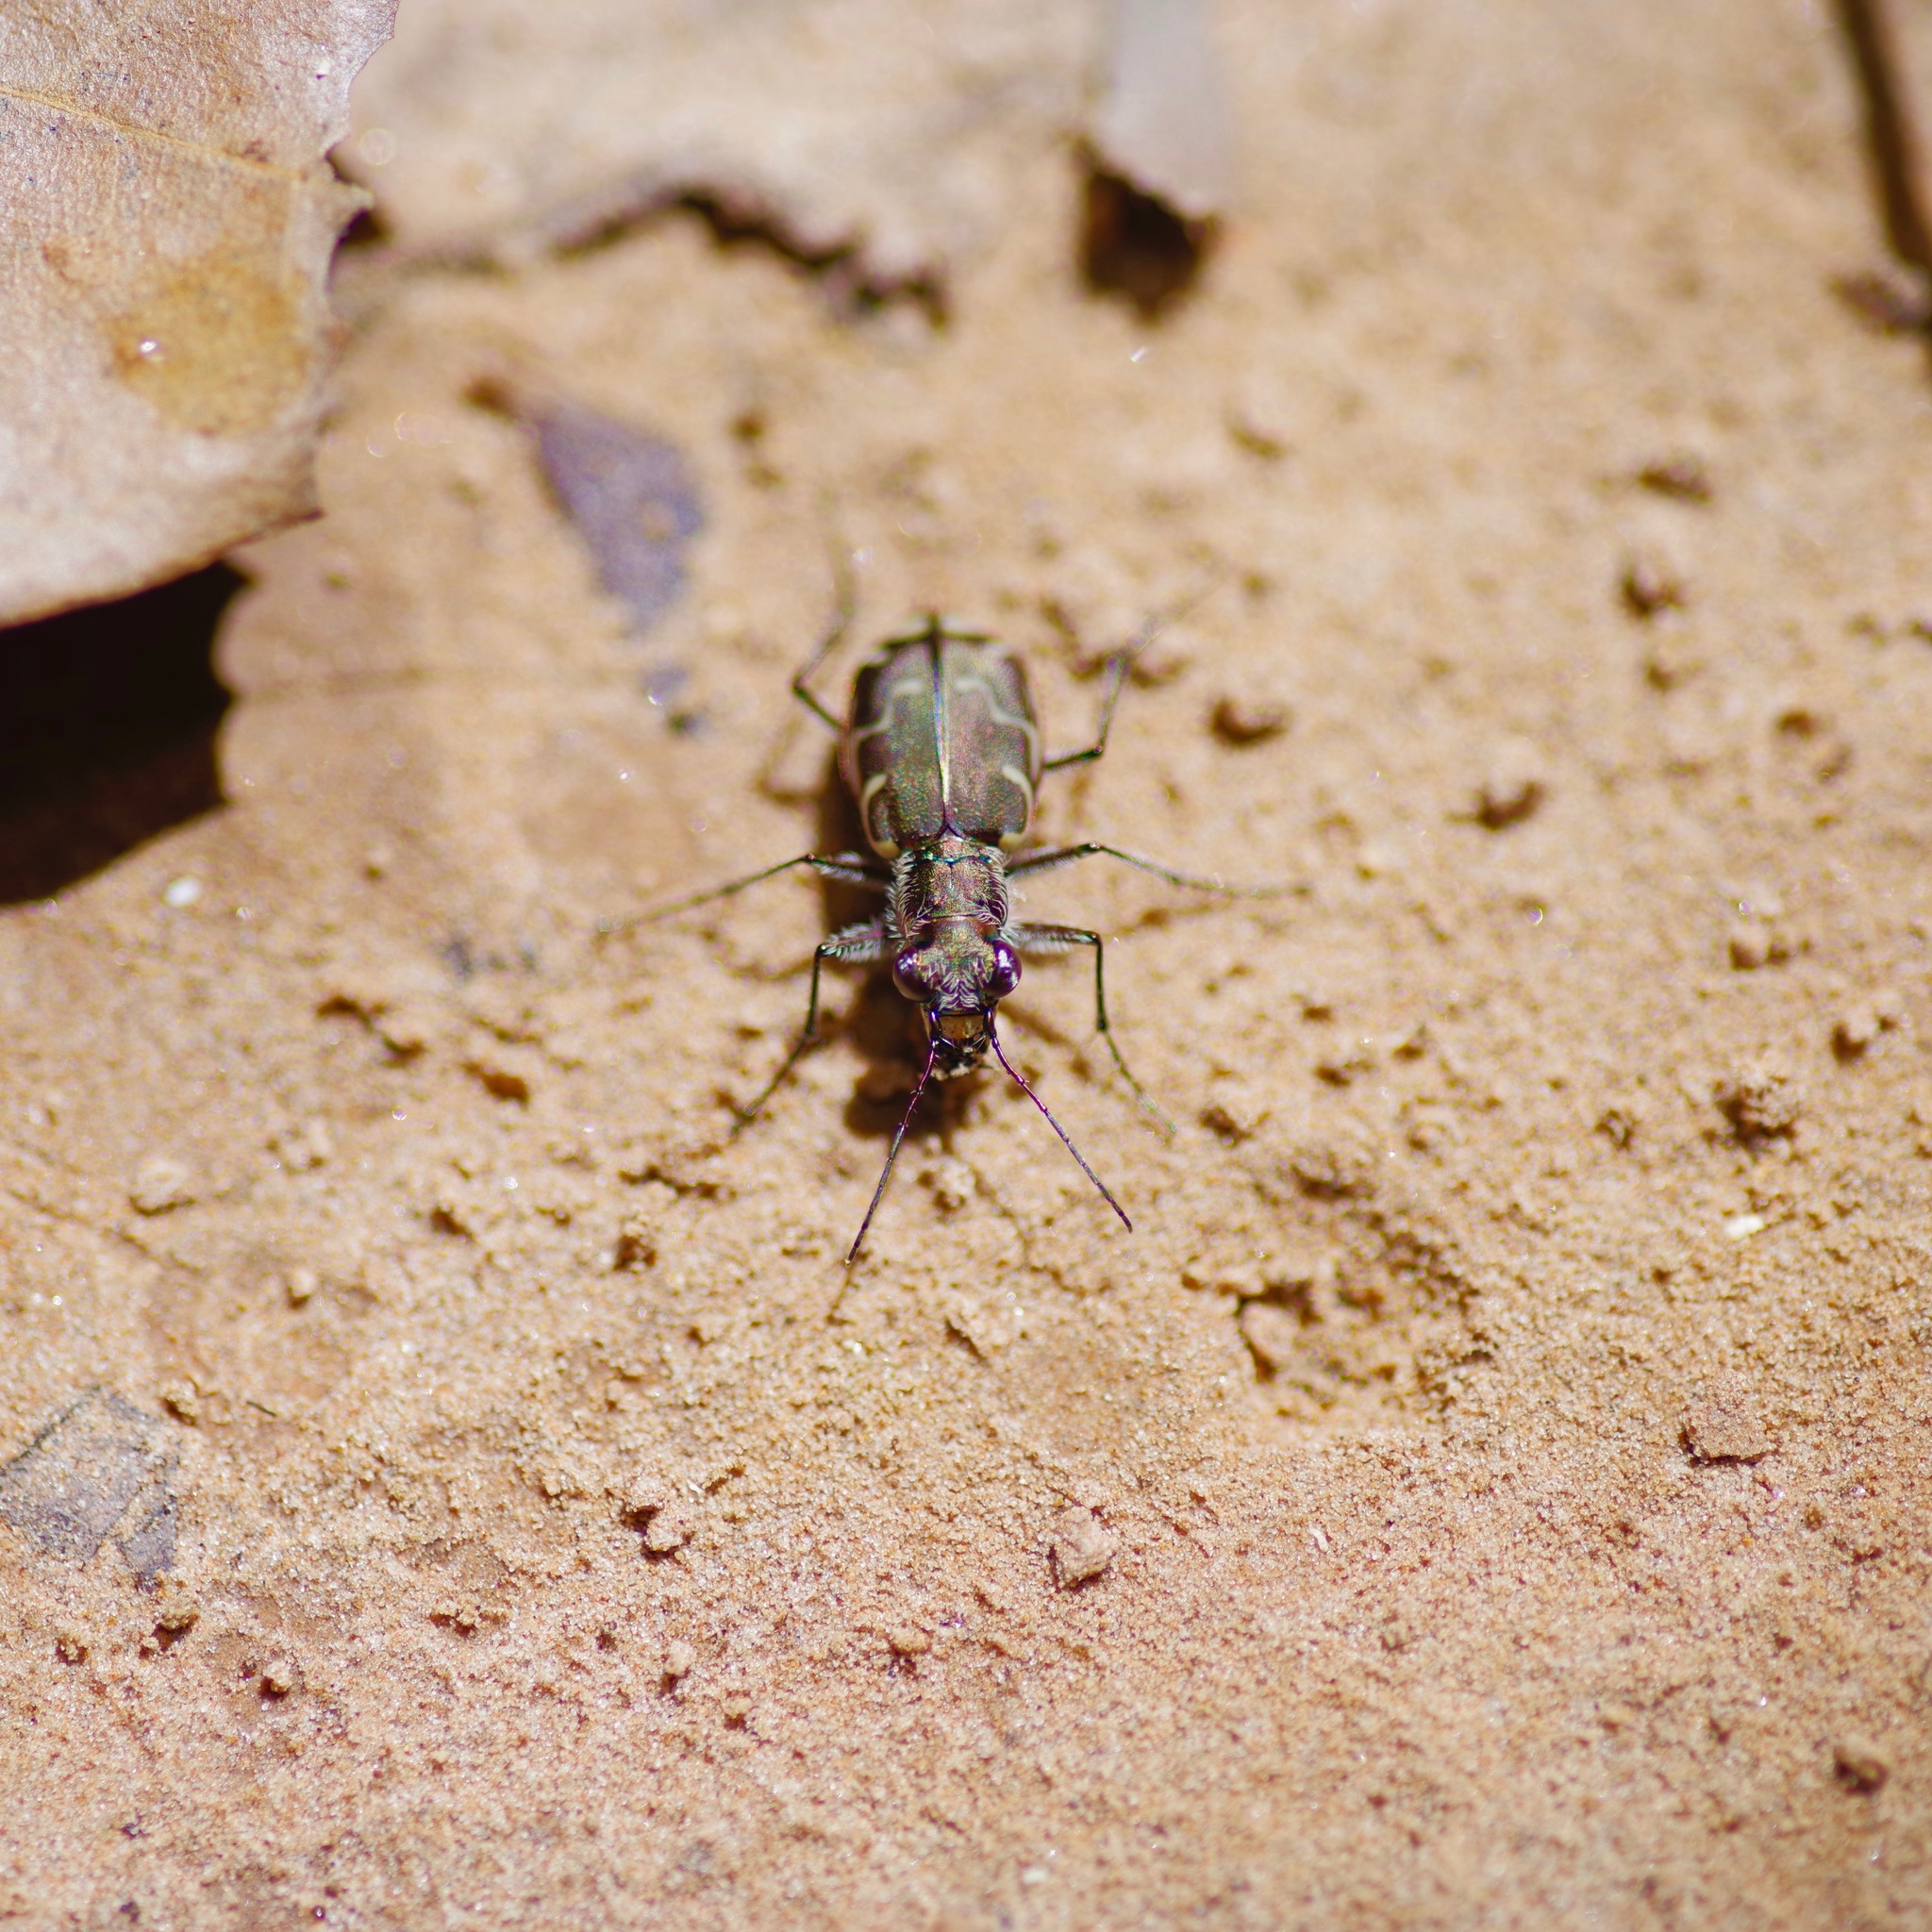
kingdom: Animalia
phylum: Arthropoda
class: Insecta
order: Coleoptera
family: Carabidae
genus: Cicindela
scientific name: Cicindela repanda
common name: Bronzed tiger beetle
